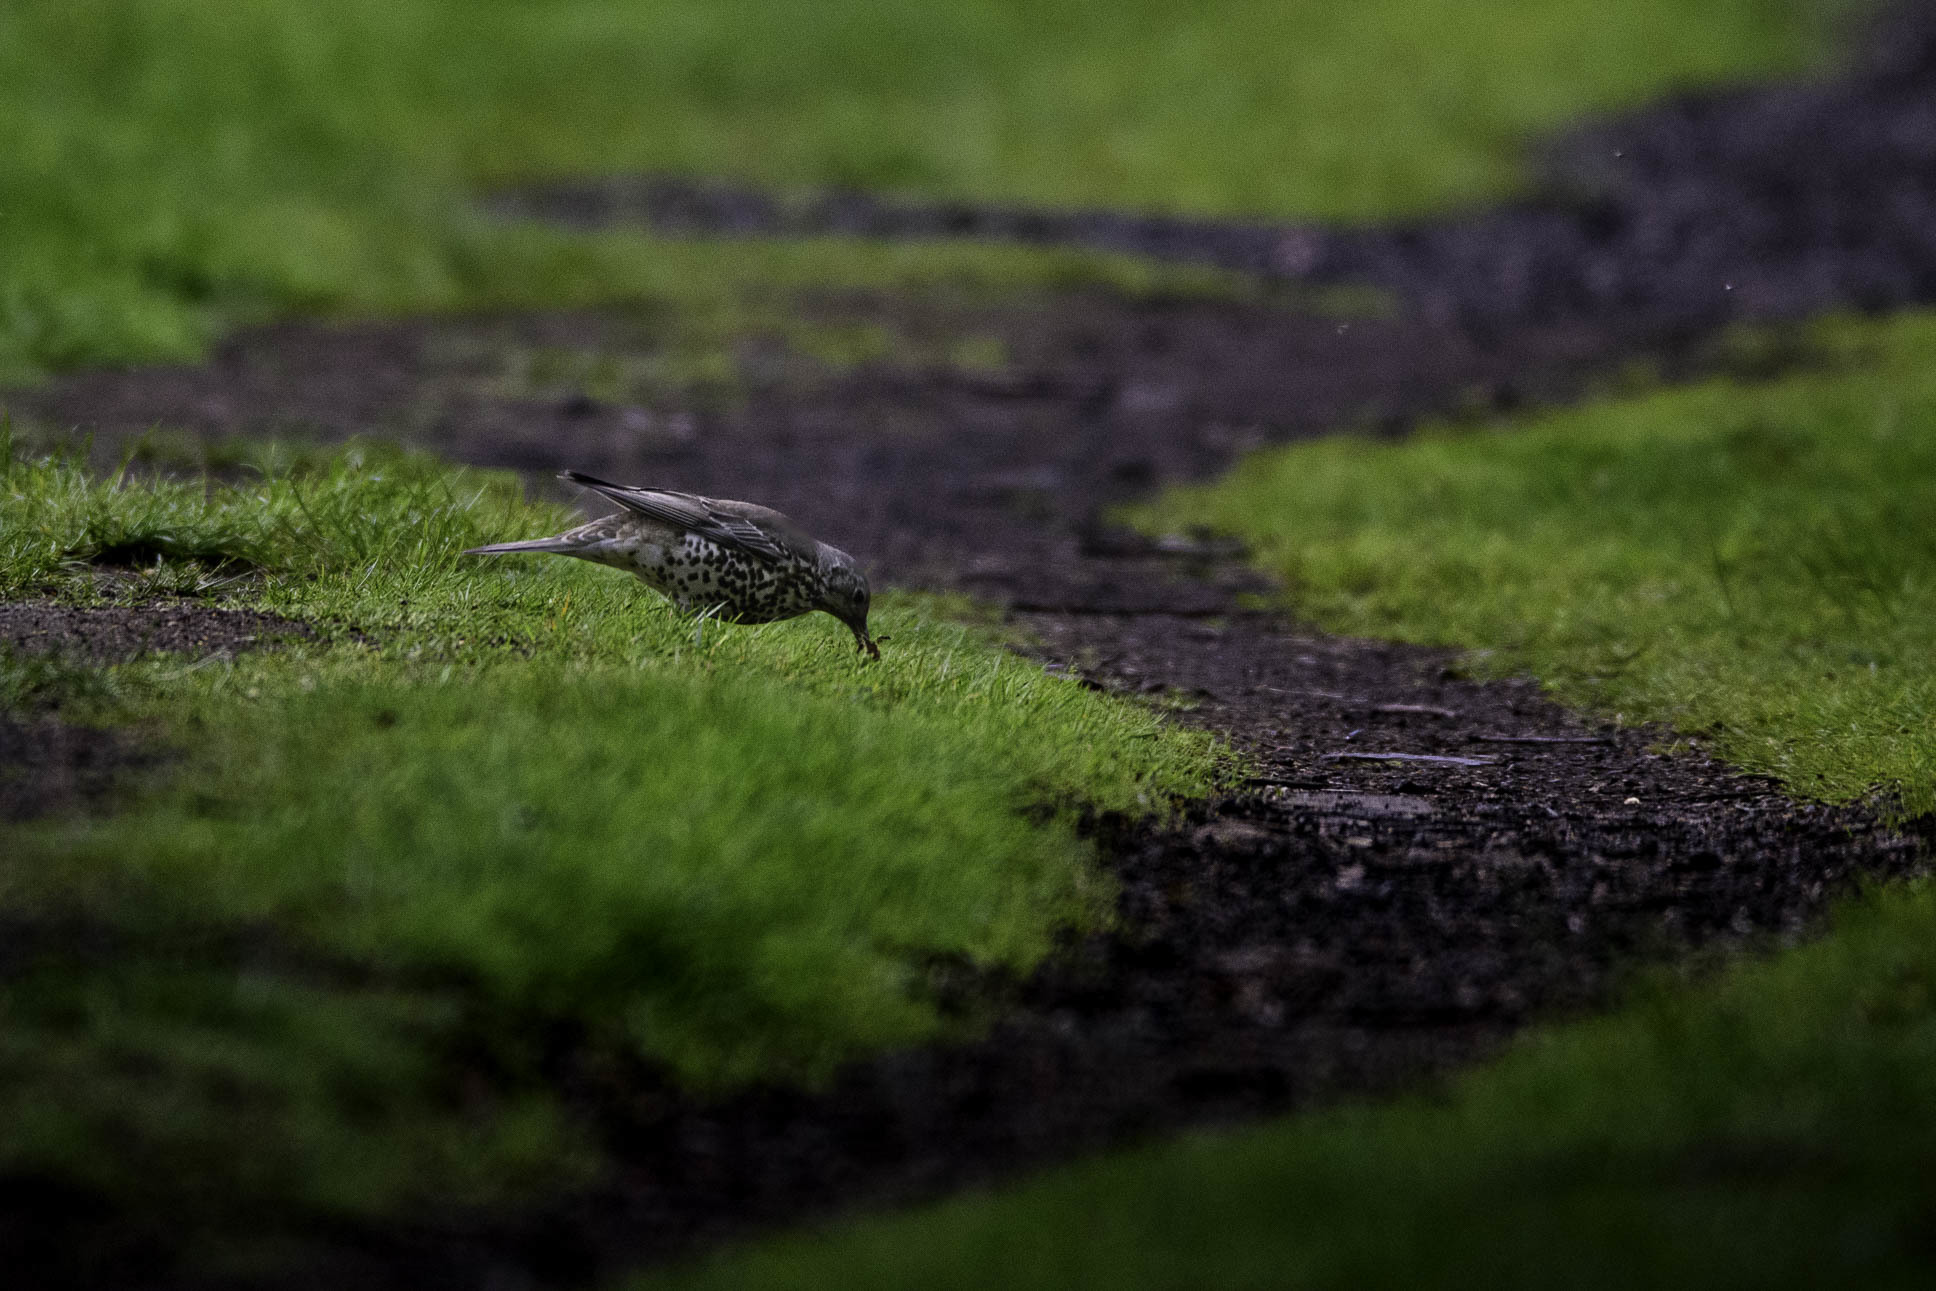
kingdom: Animalia
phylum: Chordata
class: Aves
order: Passeriformes
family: Turdidae
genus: Turdus
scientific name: Turdus philomelos
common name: Song thrush
